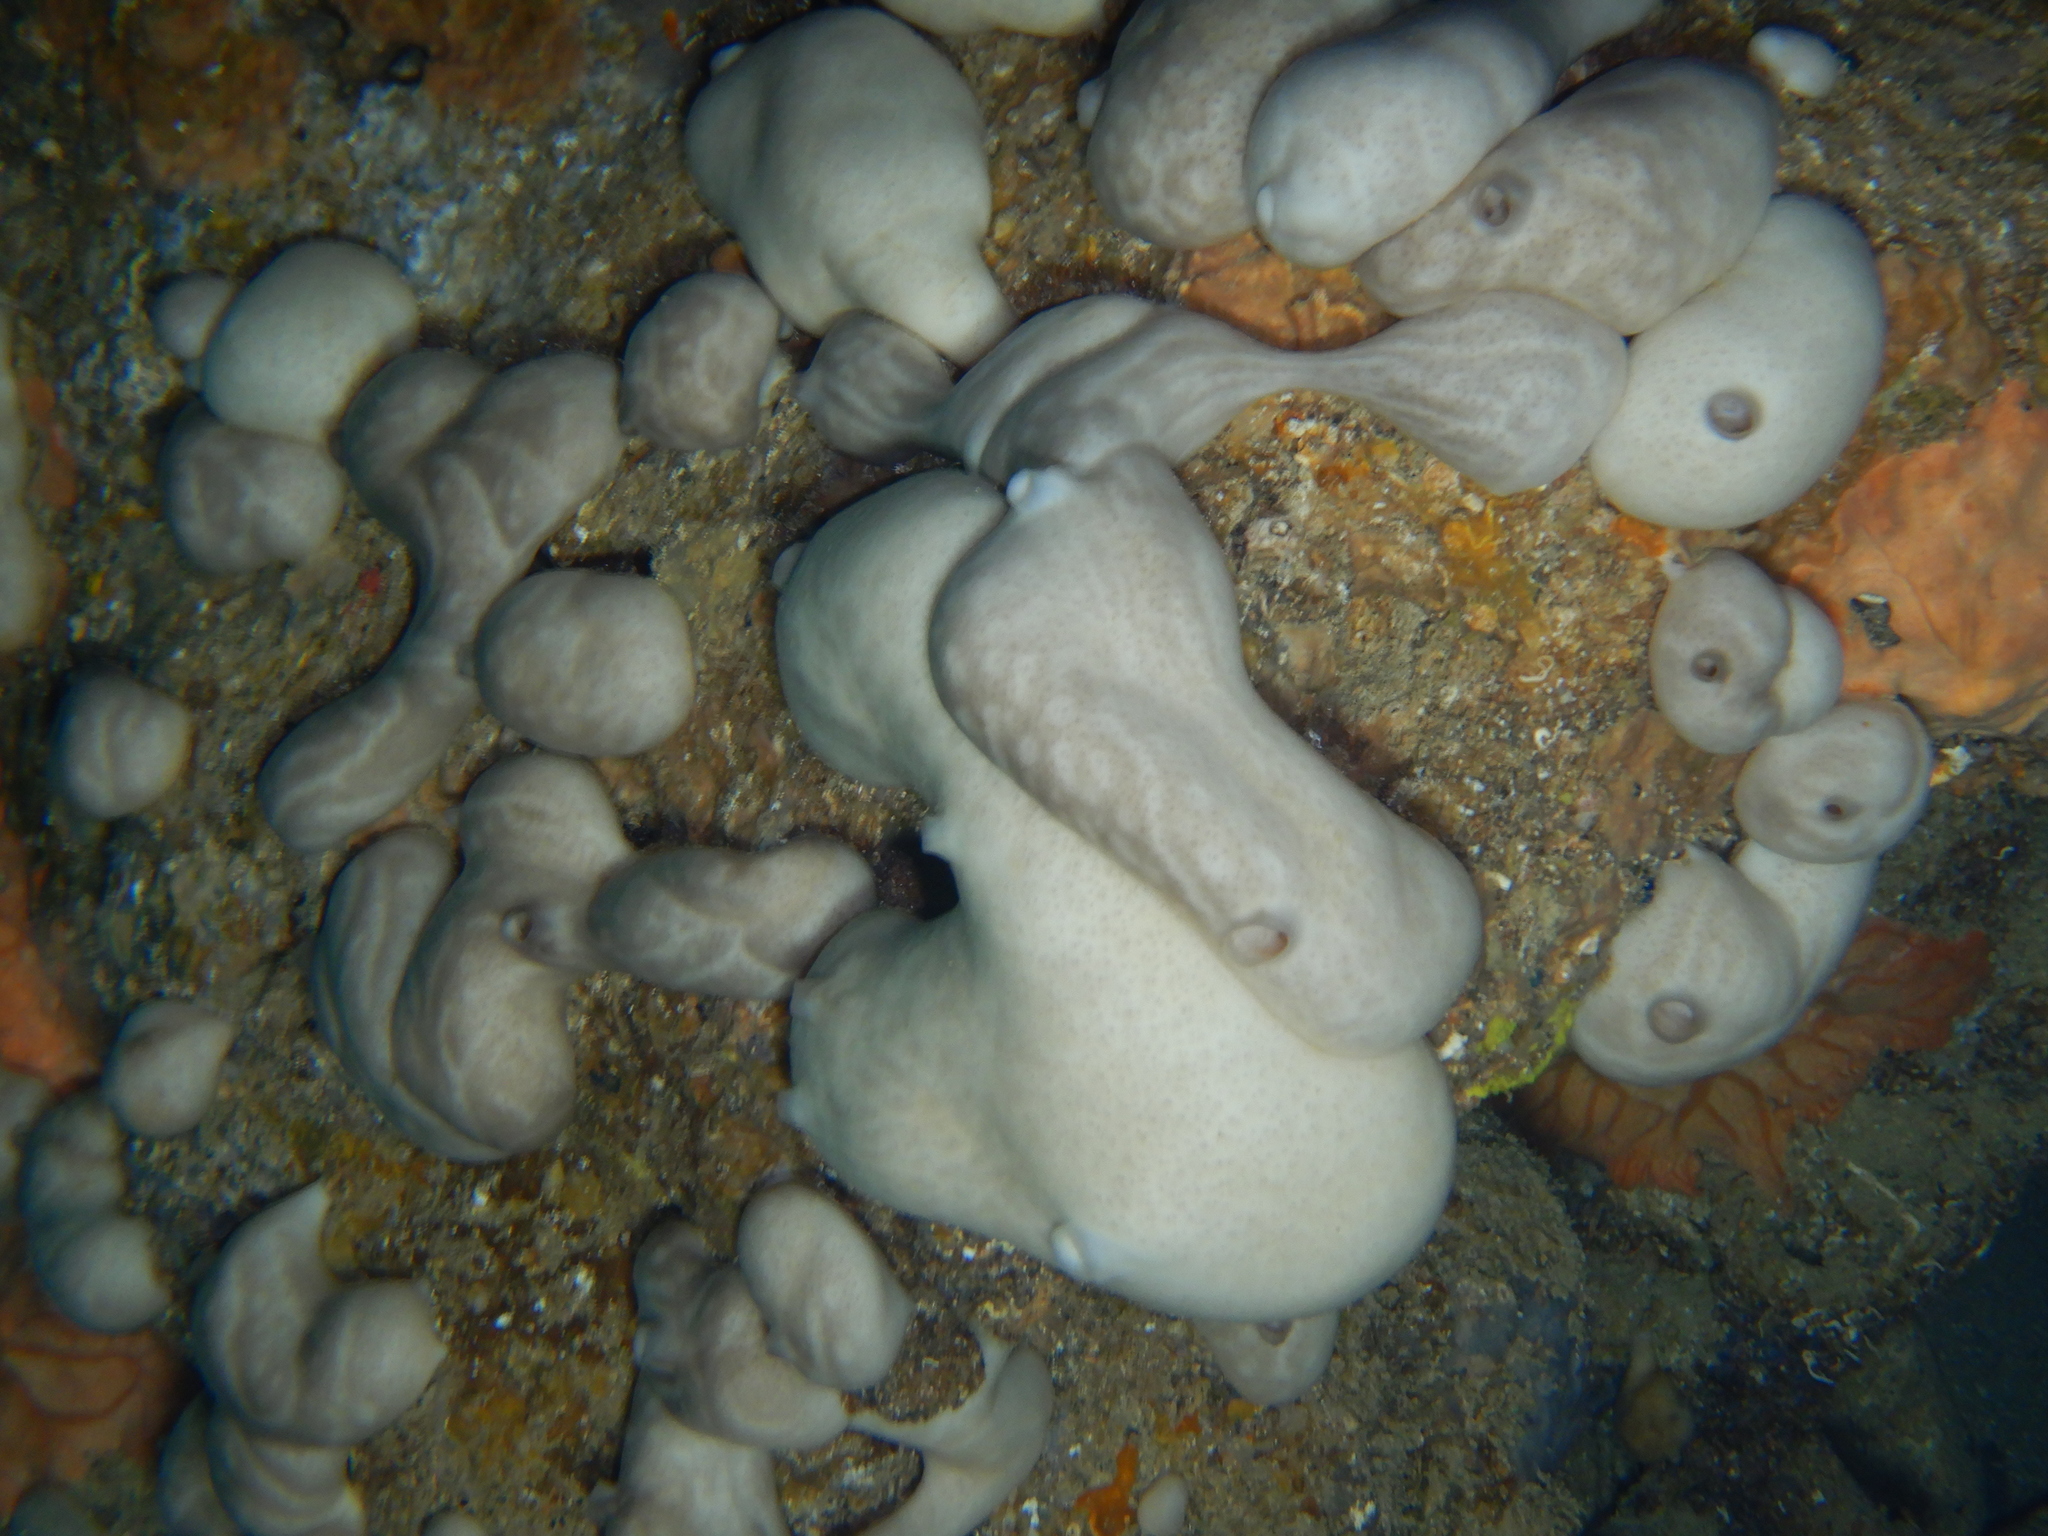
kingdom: Animalia
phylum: Porifera
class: Demospongiae
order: Chondrosiida
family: Chondrosiidae
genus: Chondrosia
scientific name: Chondrosia reniformis
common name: Chicken liver sponge
